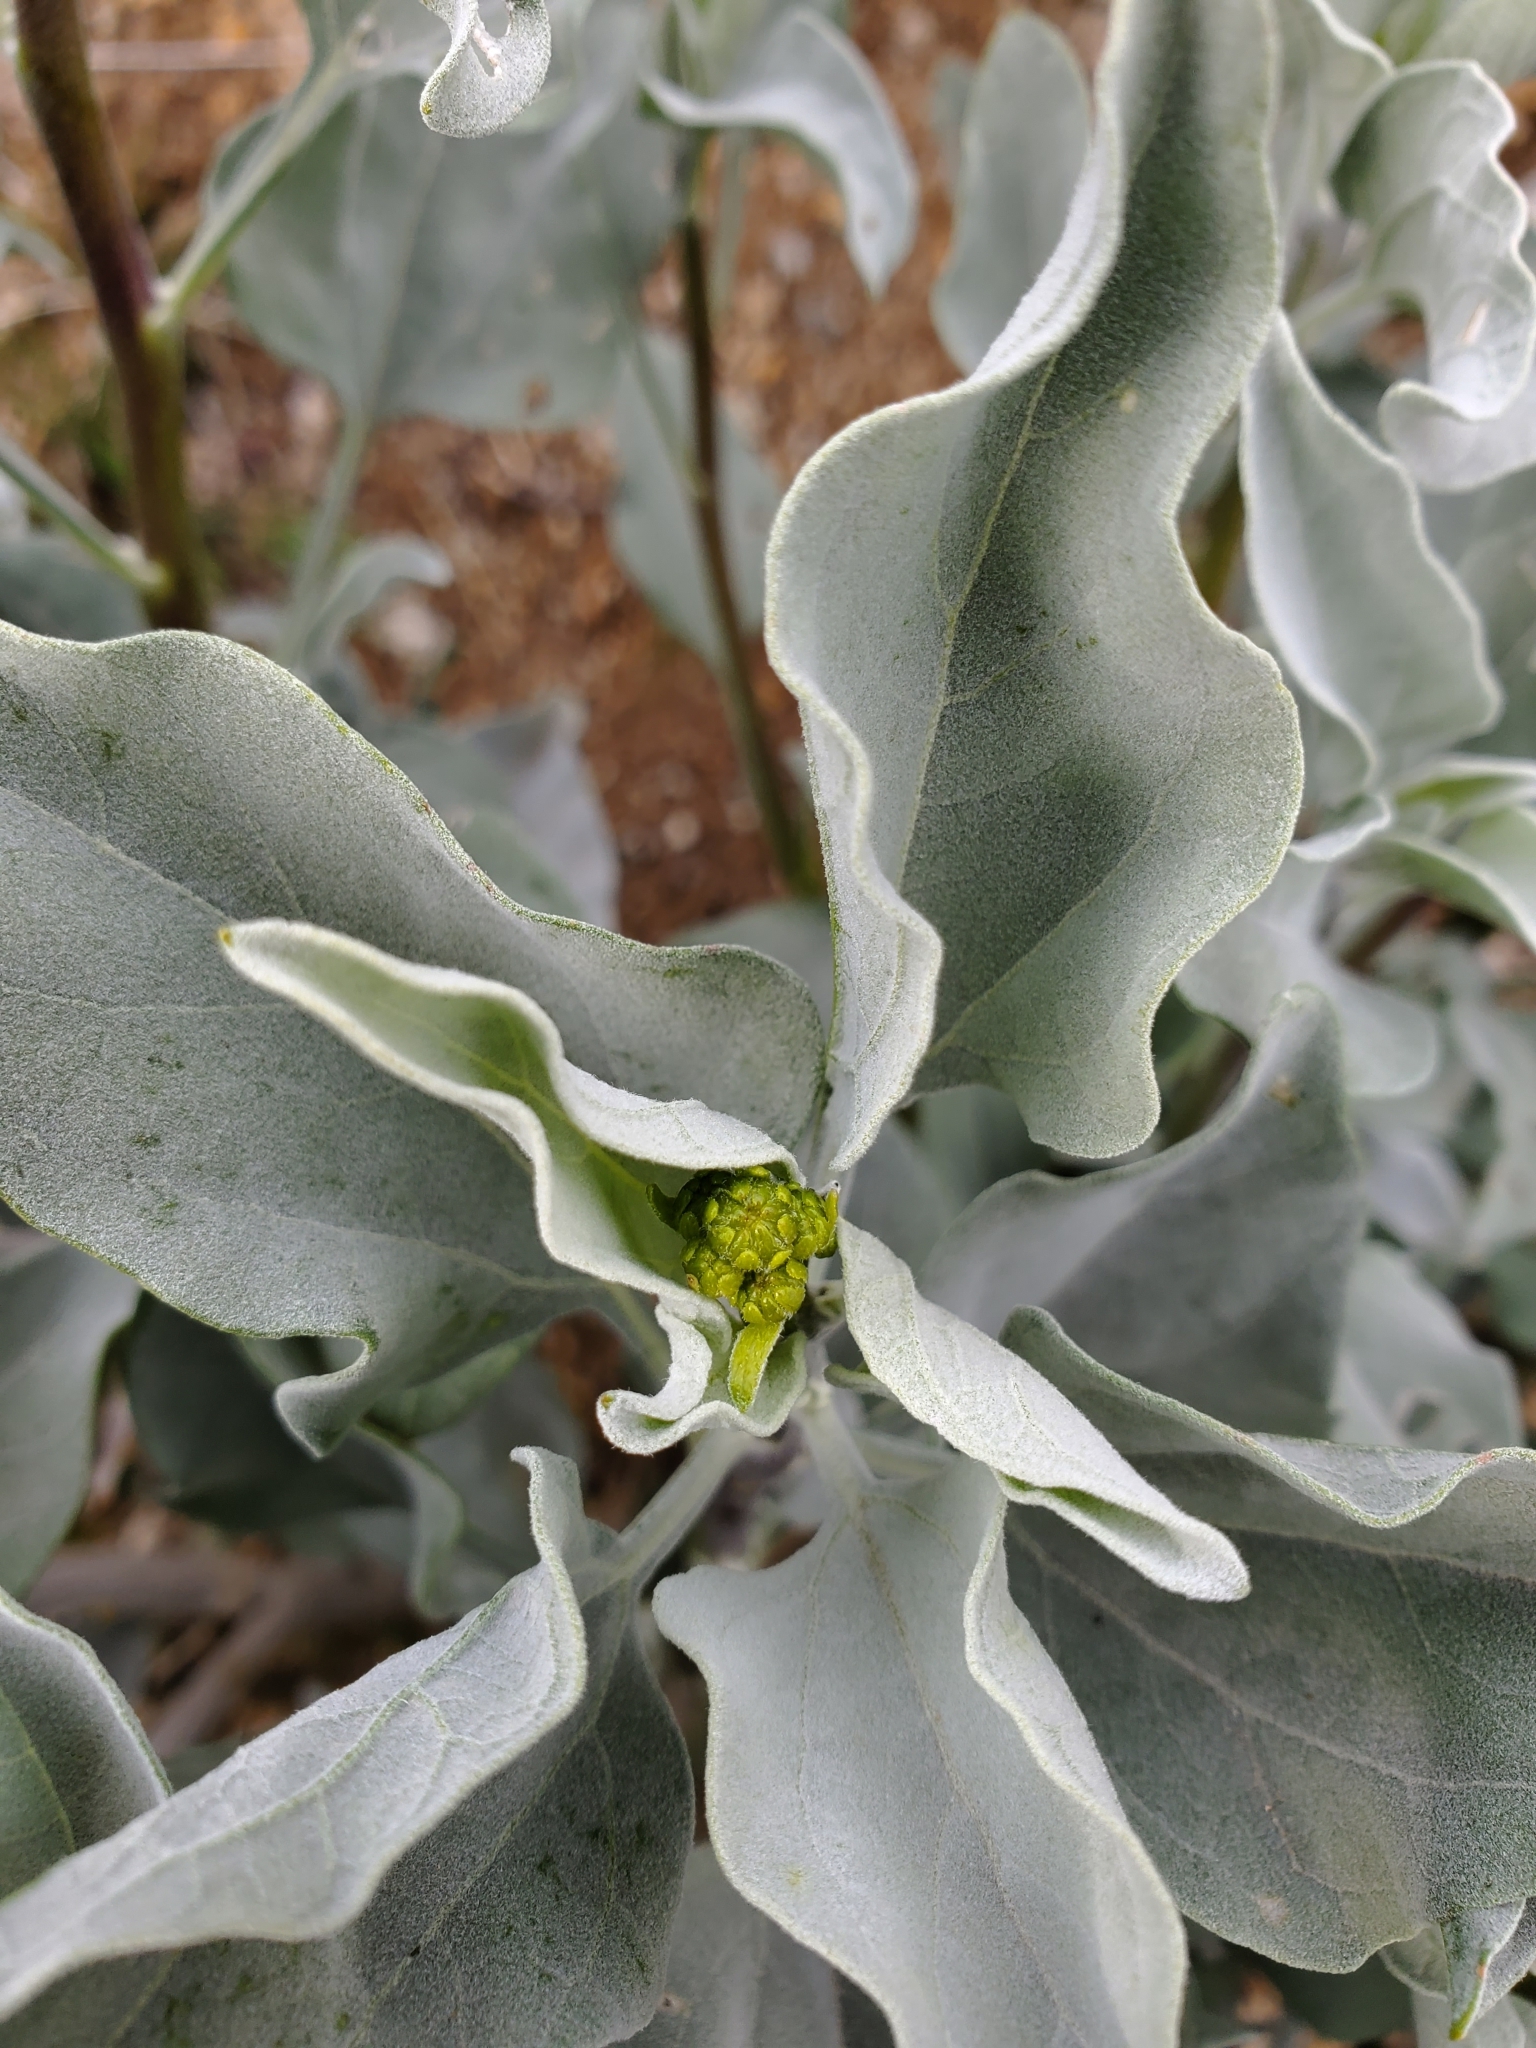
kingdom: Plantae
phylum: Tracheophyta
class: Magnoliopsida
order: Asterales
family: Asteraceae
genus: Encelia
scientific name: Encelia farinosa
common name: Brittlebush
